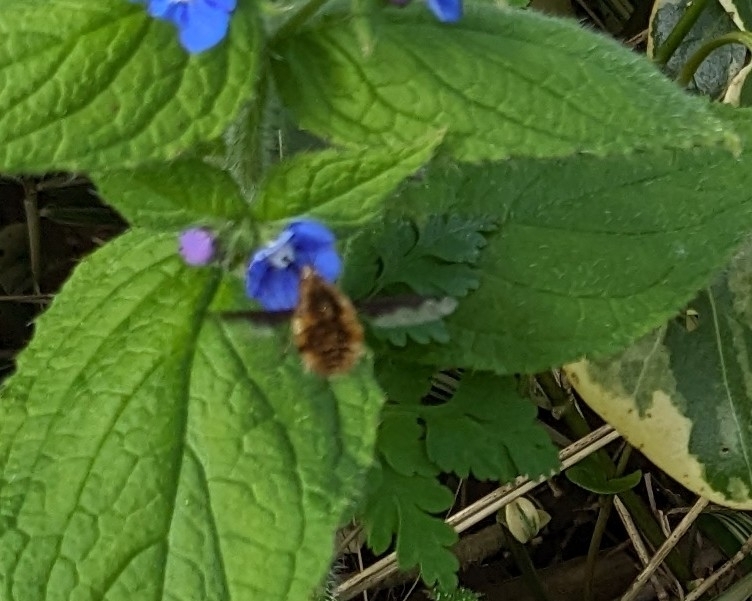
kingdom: Animalia
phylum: Arthropoda
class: Insecta
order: Diptera
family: Bombyliidae
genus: Bombylius
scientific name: Bombylius major
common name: Bee fly
